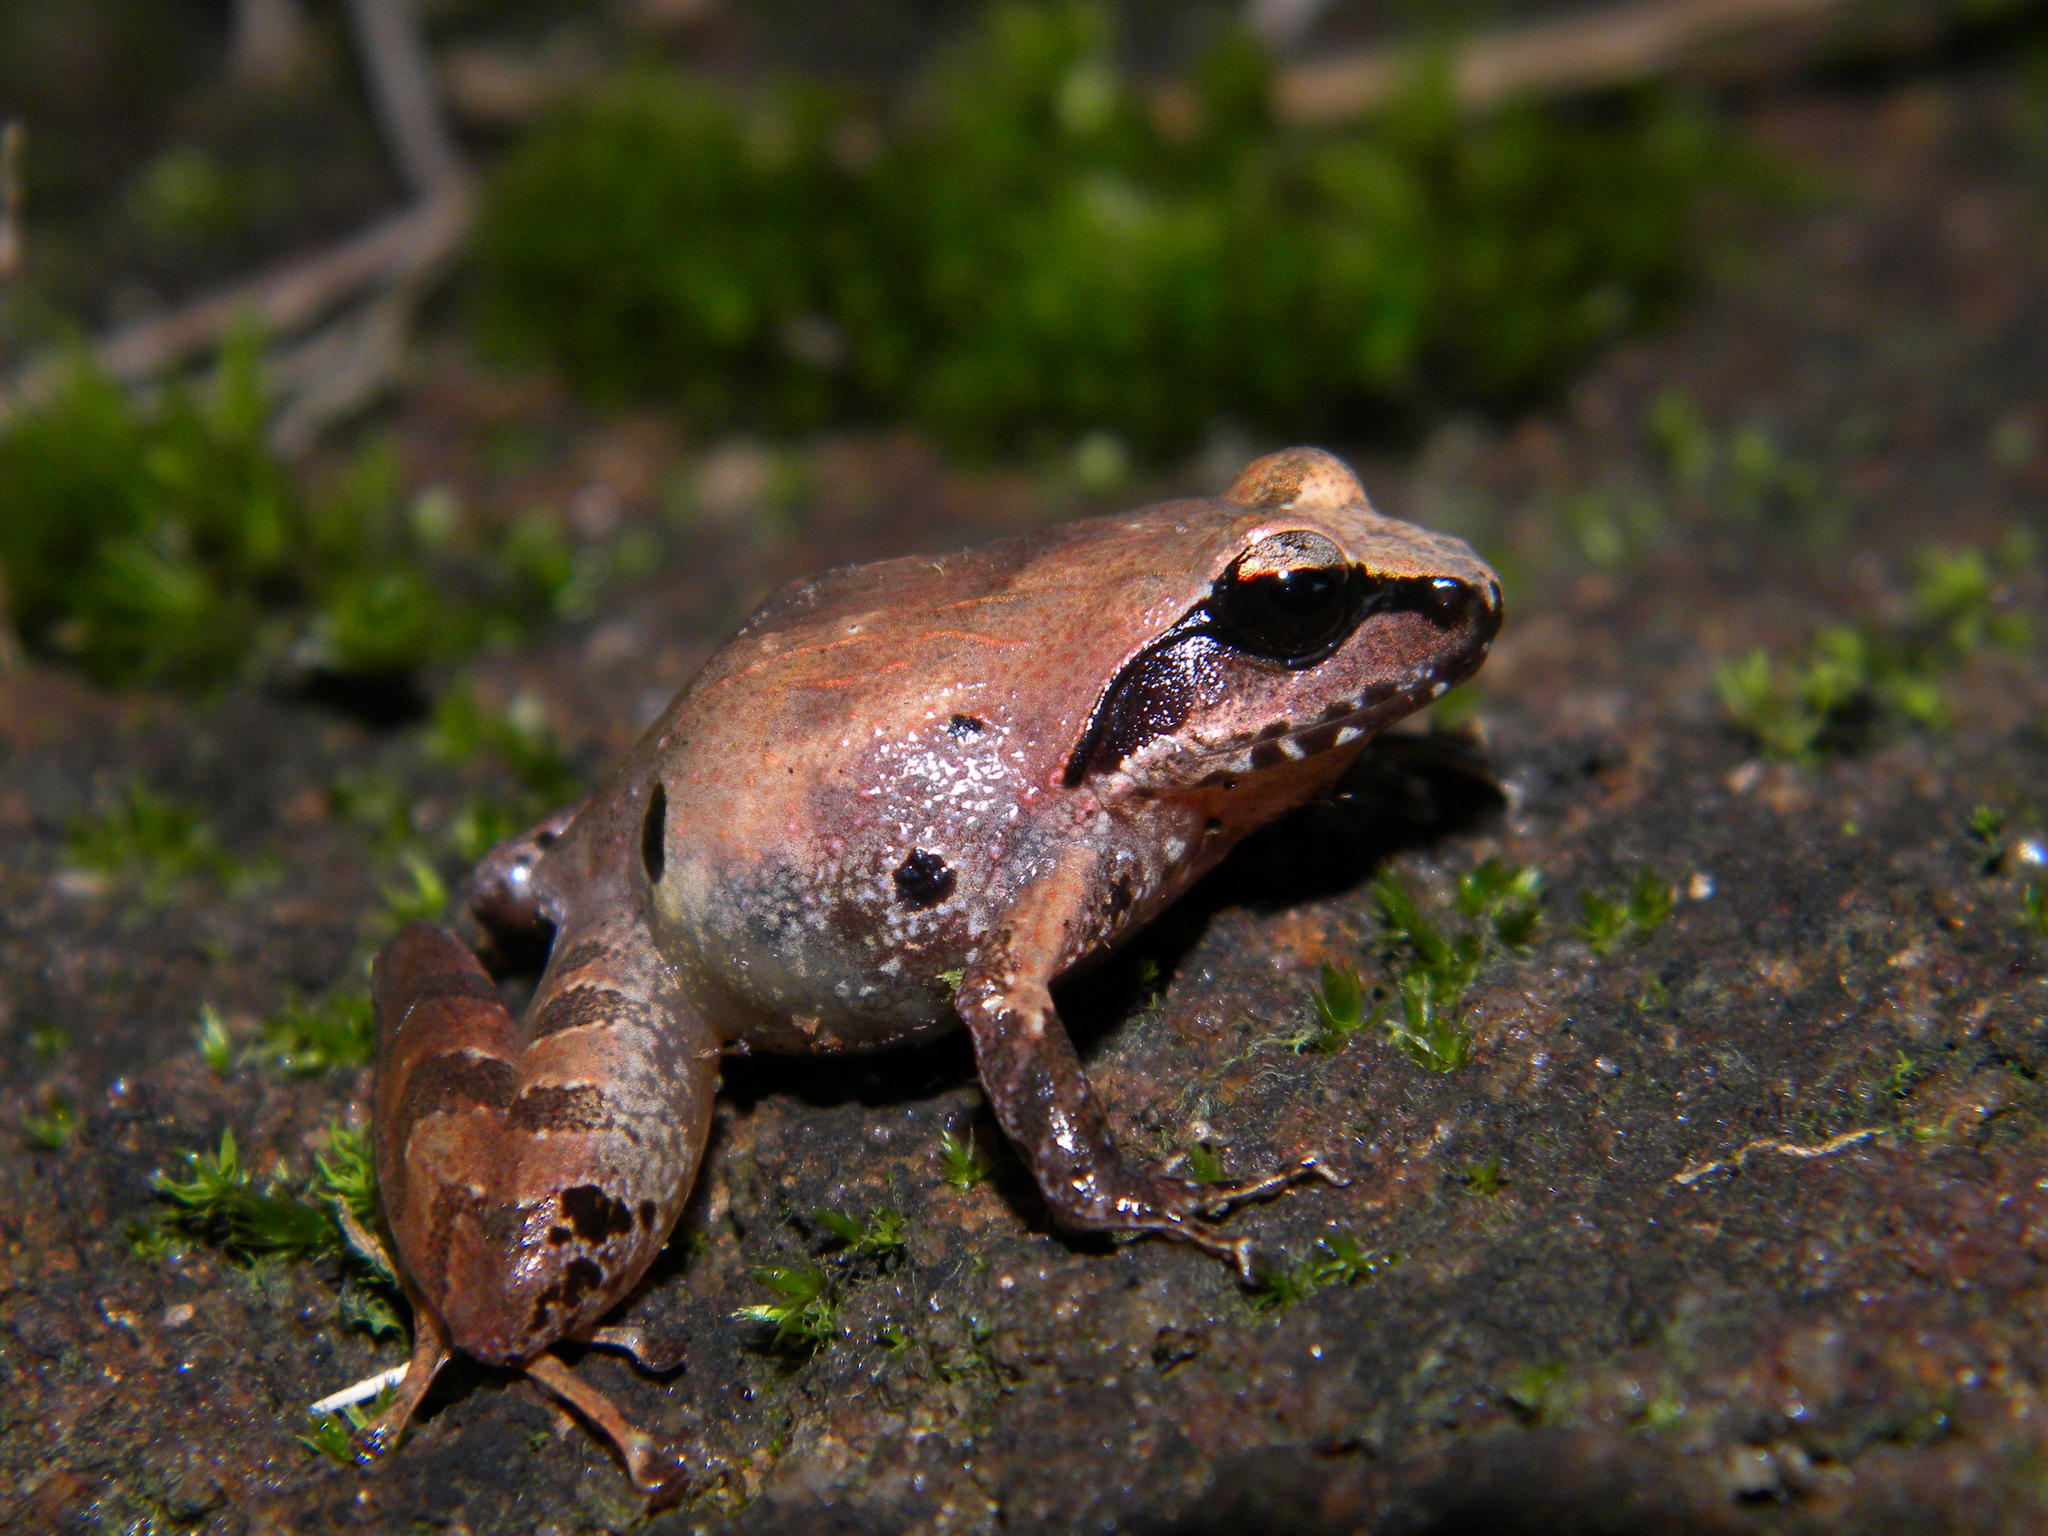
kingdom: Animalia
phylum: Chordata
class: Amphibia
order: Anura
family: Ranixalidae
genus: Walkerana
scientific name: Walkerana diplosticta
